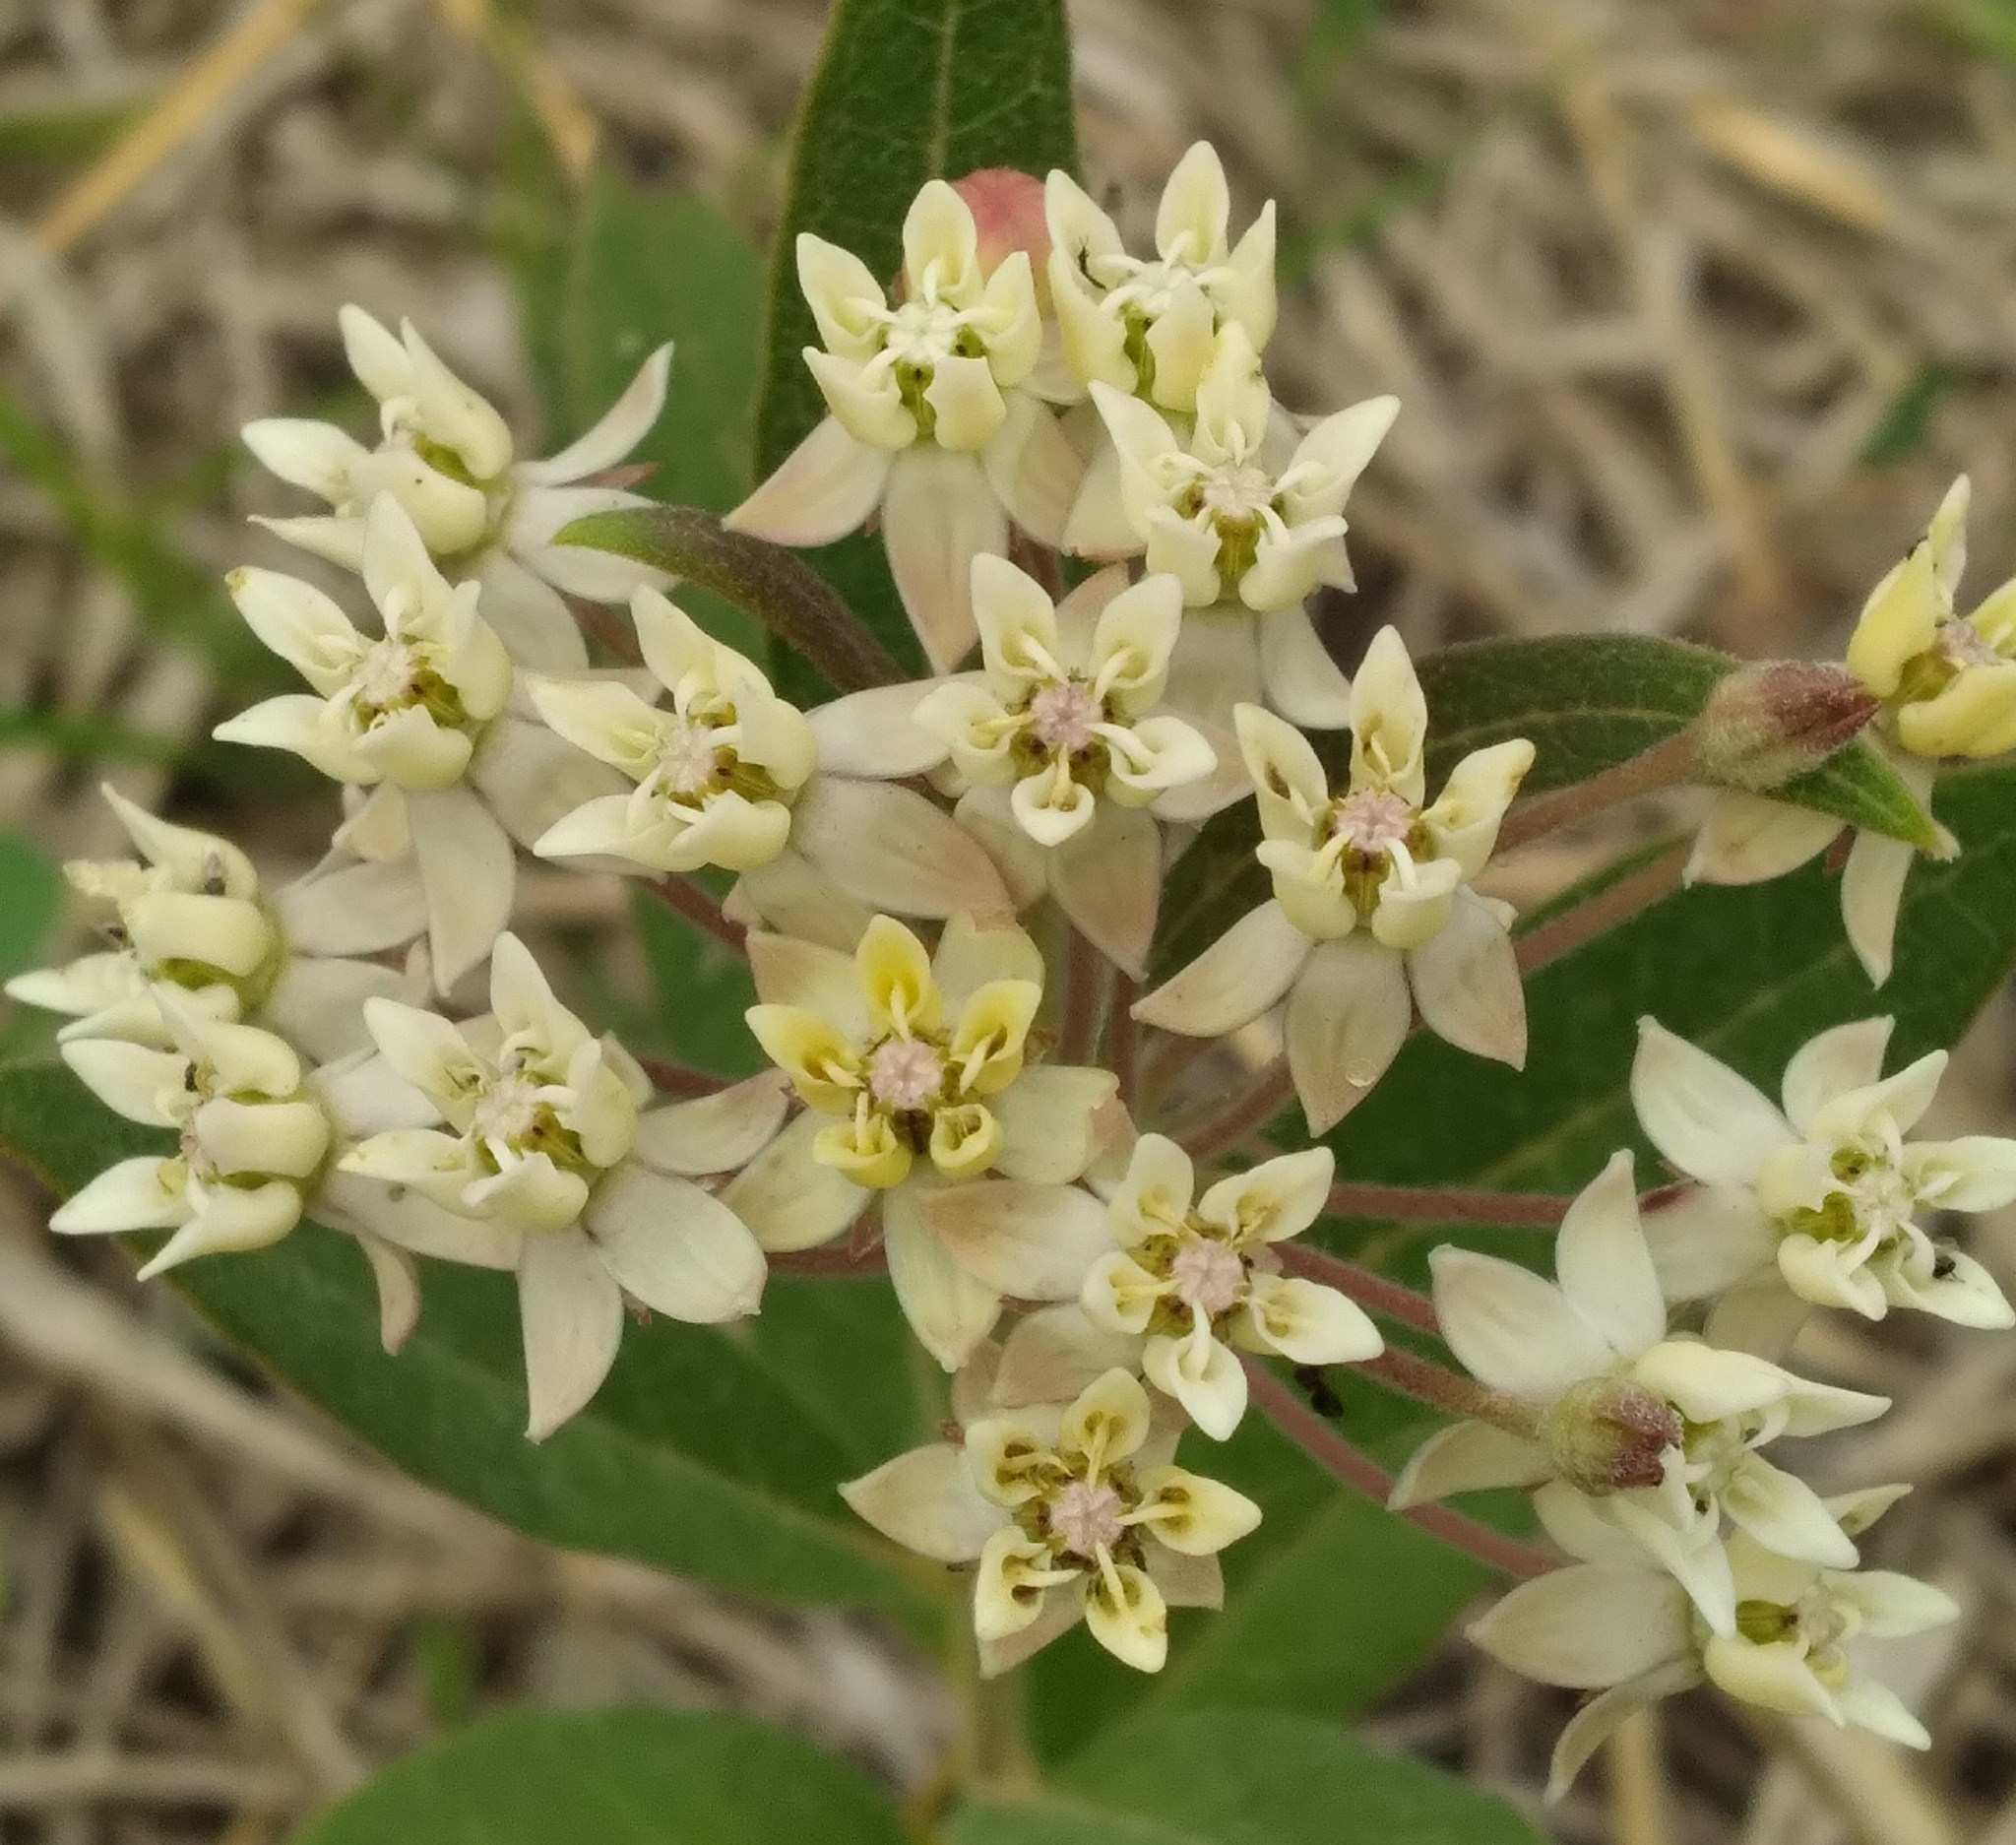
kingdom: Plantae
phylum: Tracheophyta
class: Magnoliopsida
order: Gentianales
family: Apocynaceae
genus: Asclepias
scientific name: Asclepias ovalifolia
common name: Dwarf milkweed
